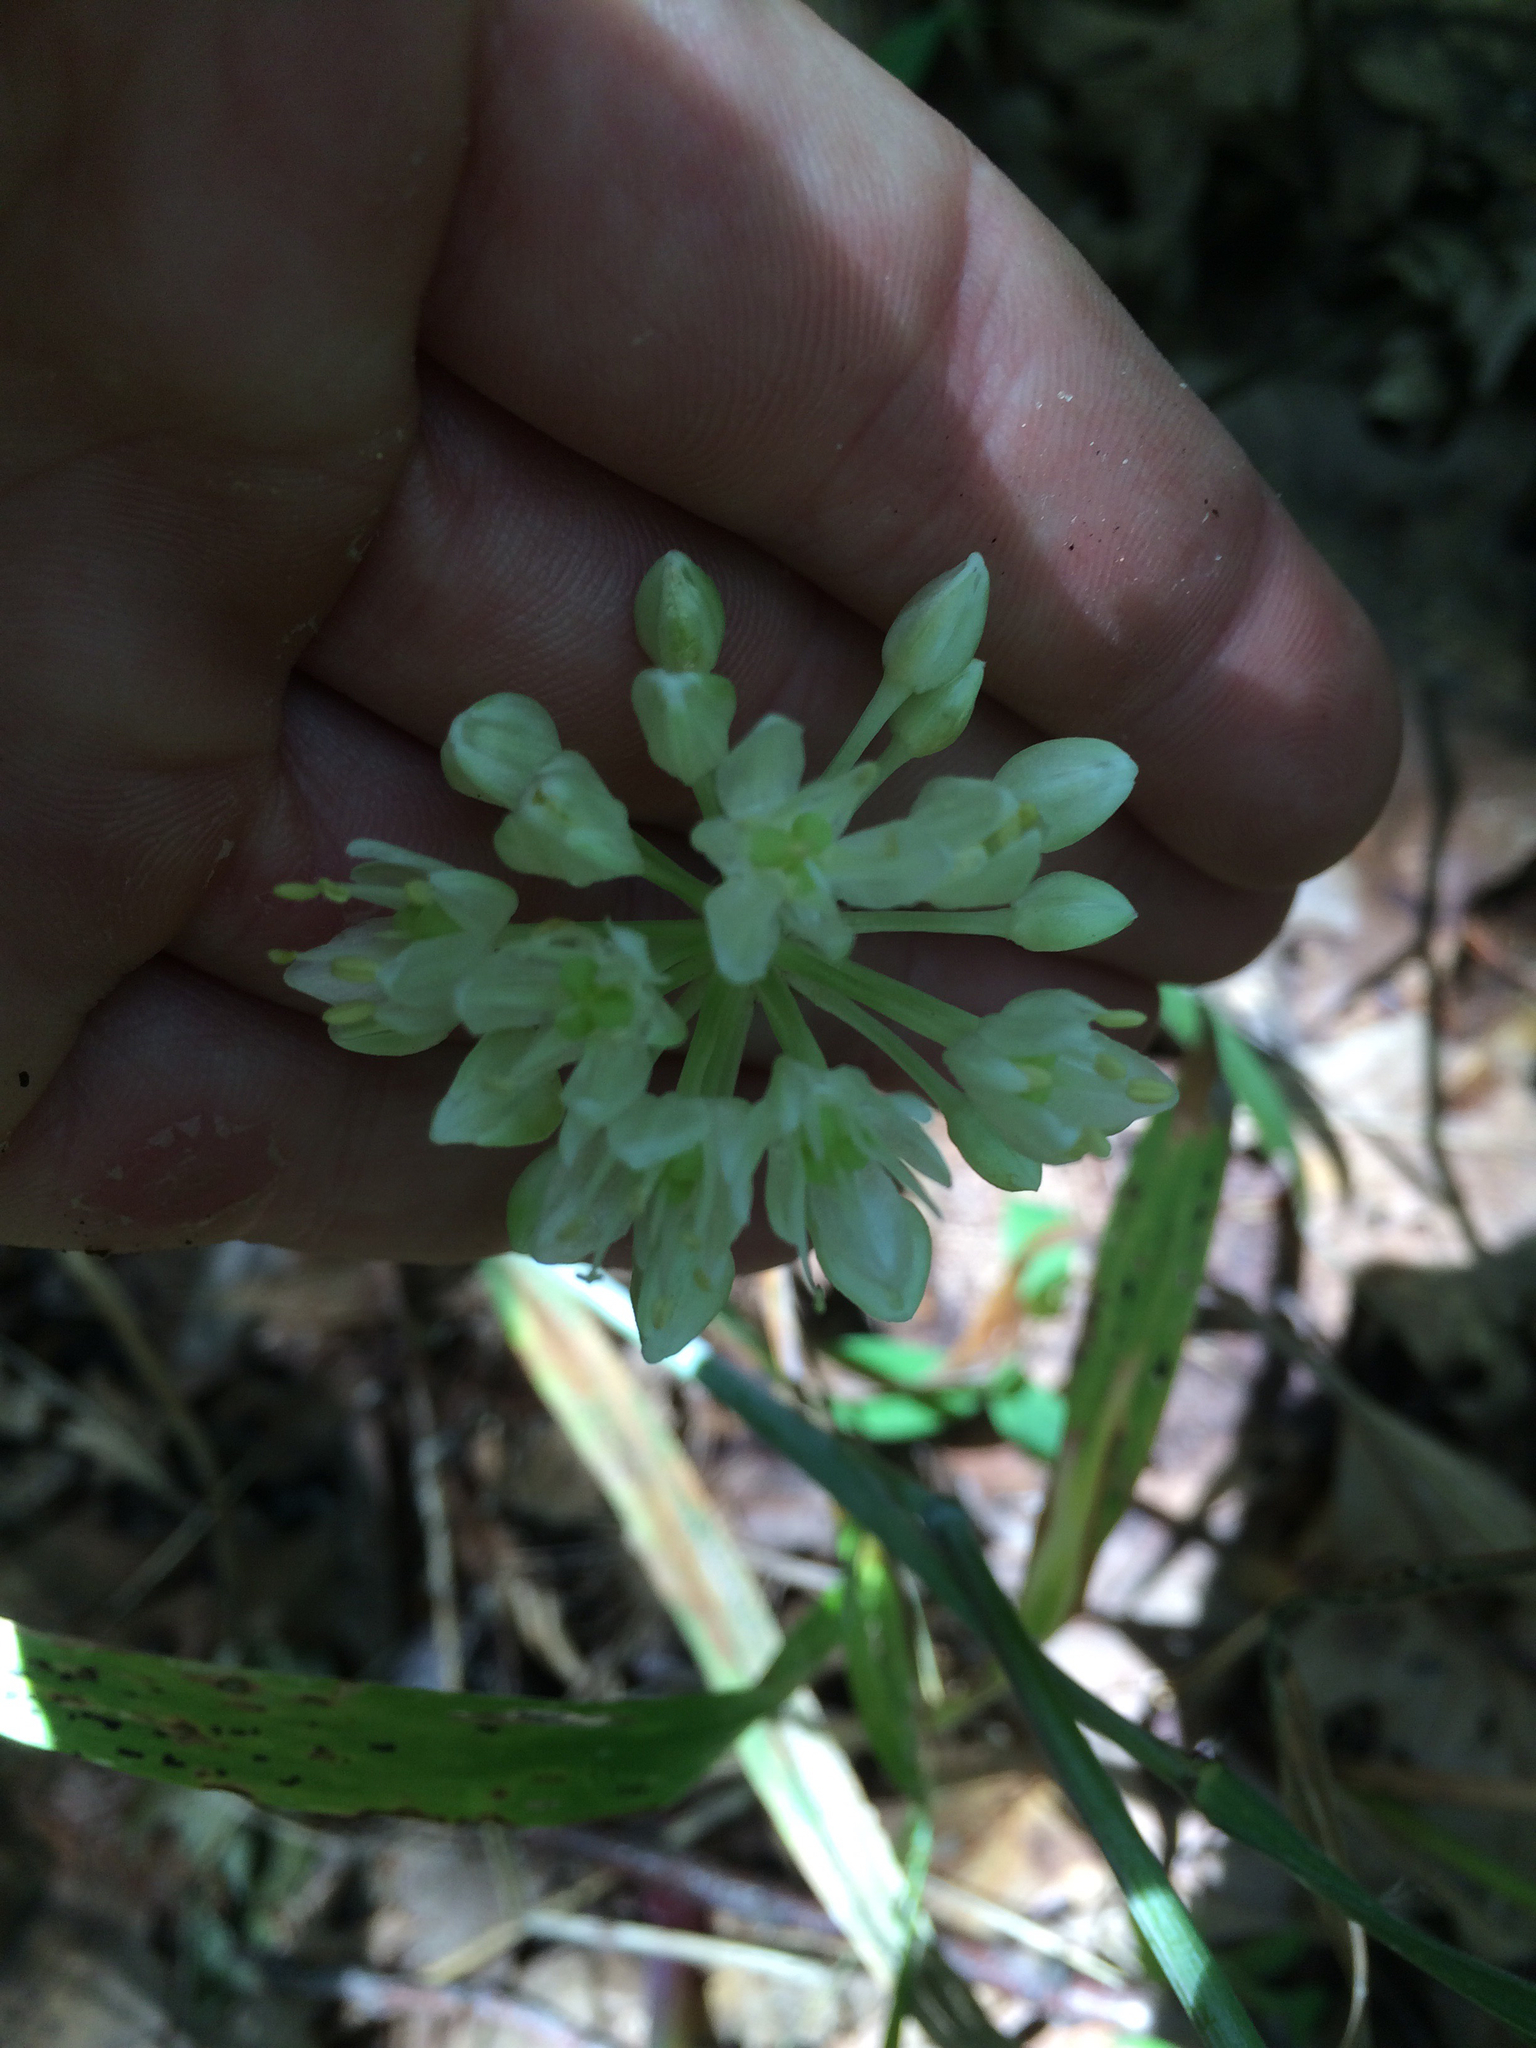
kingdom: Plantae
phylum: Tracheophyta
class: Liliopsida
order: Asparagales
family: Amaryllidaceae
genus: Allium
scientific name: Allium tricoccum
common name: Ramp
